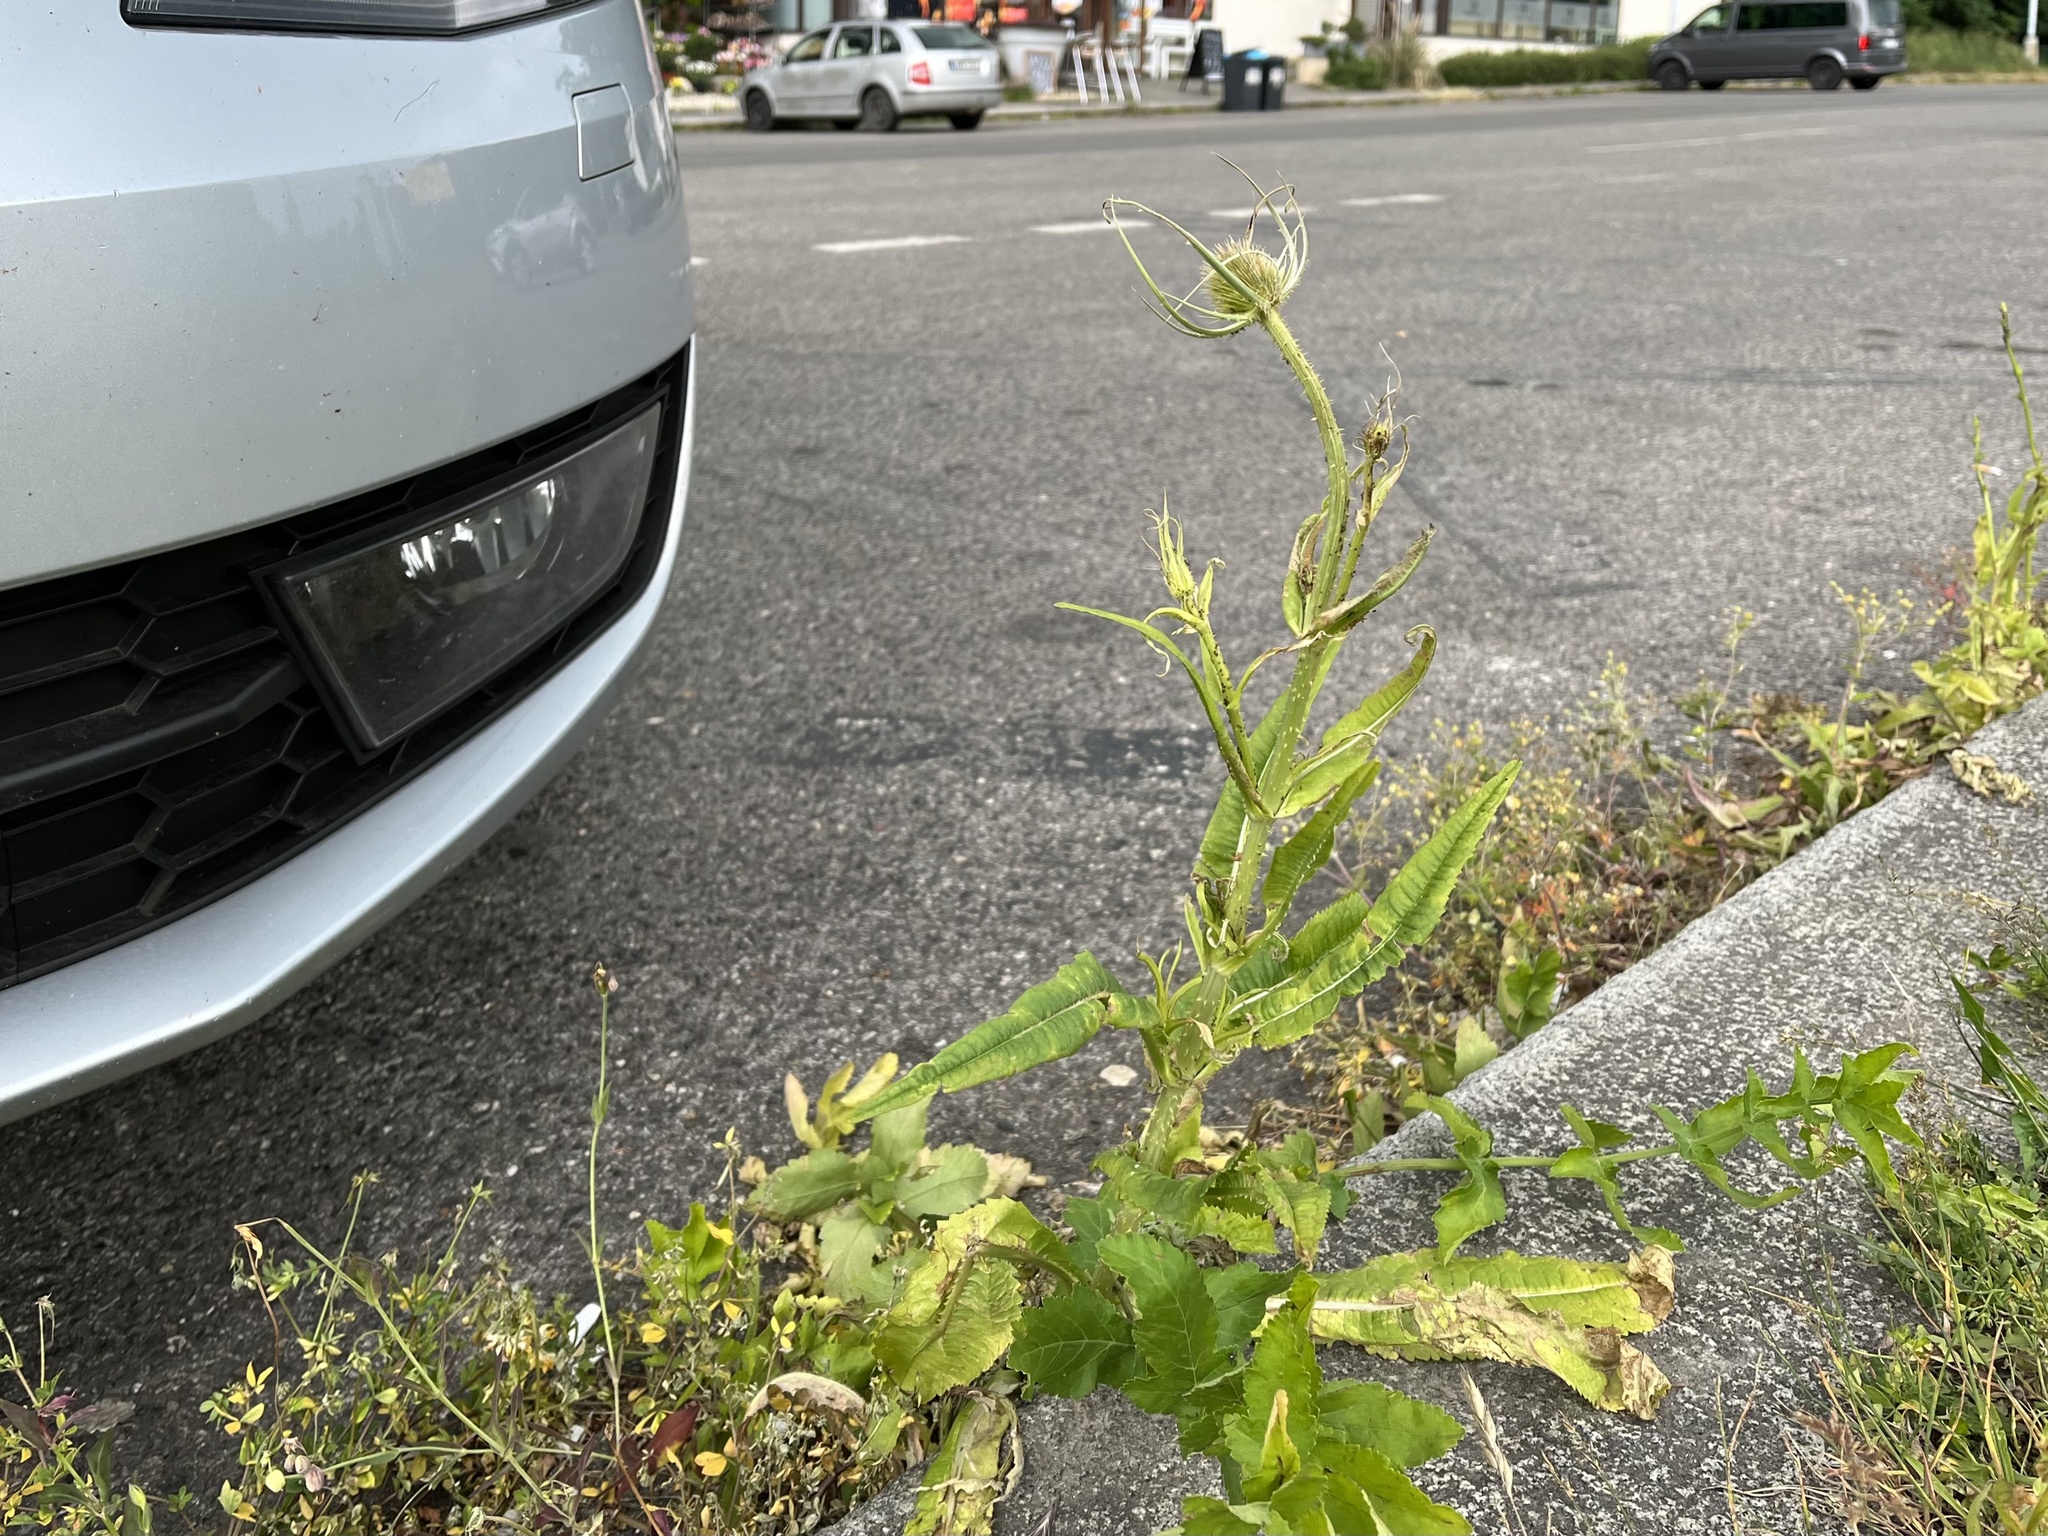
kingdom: Plantae
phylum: Tracheophyta
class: Magnoliopsida
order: Dipsacales
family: Caprifoliaceae
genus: Dipsacus
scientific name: Dipsacus fullonum
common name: Teasel
